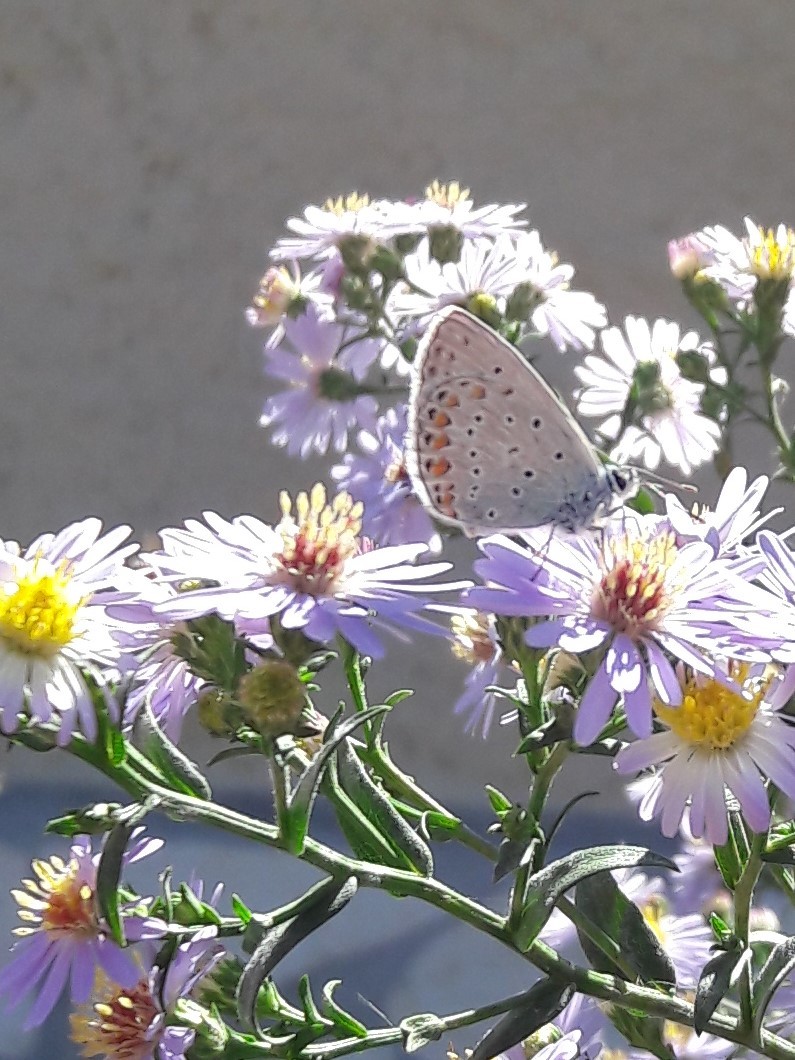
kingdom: Animalia
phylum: Arthropoda
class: Insecta
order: Lepidoptera
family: Lycaenidae
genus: Polyommatus
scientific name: Polyommatus icarus
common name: Common blue
